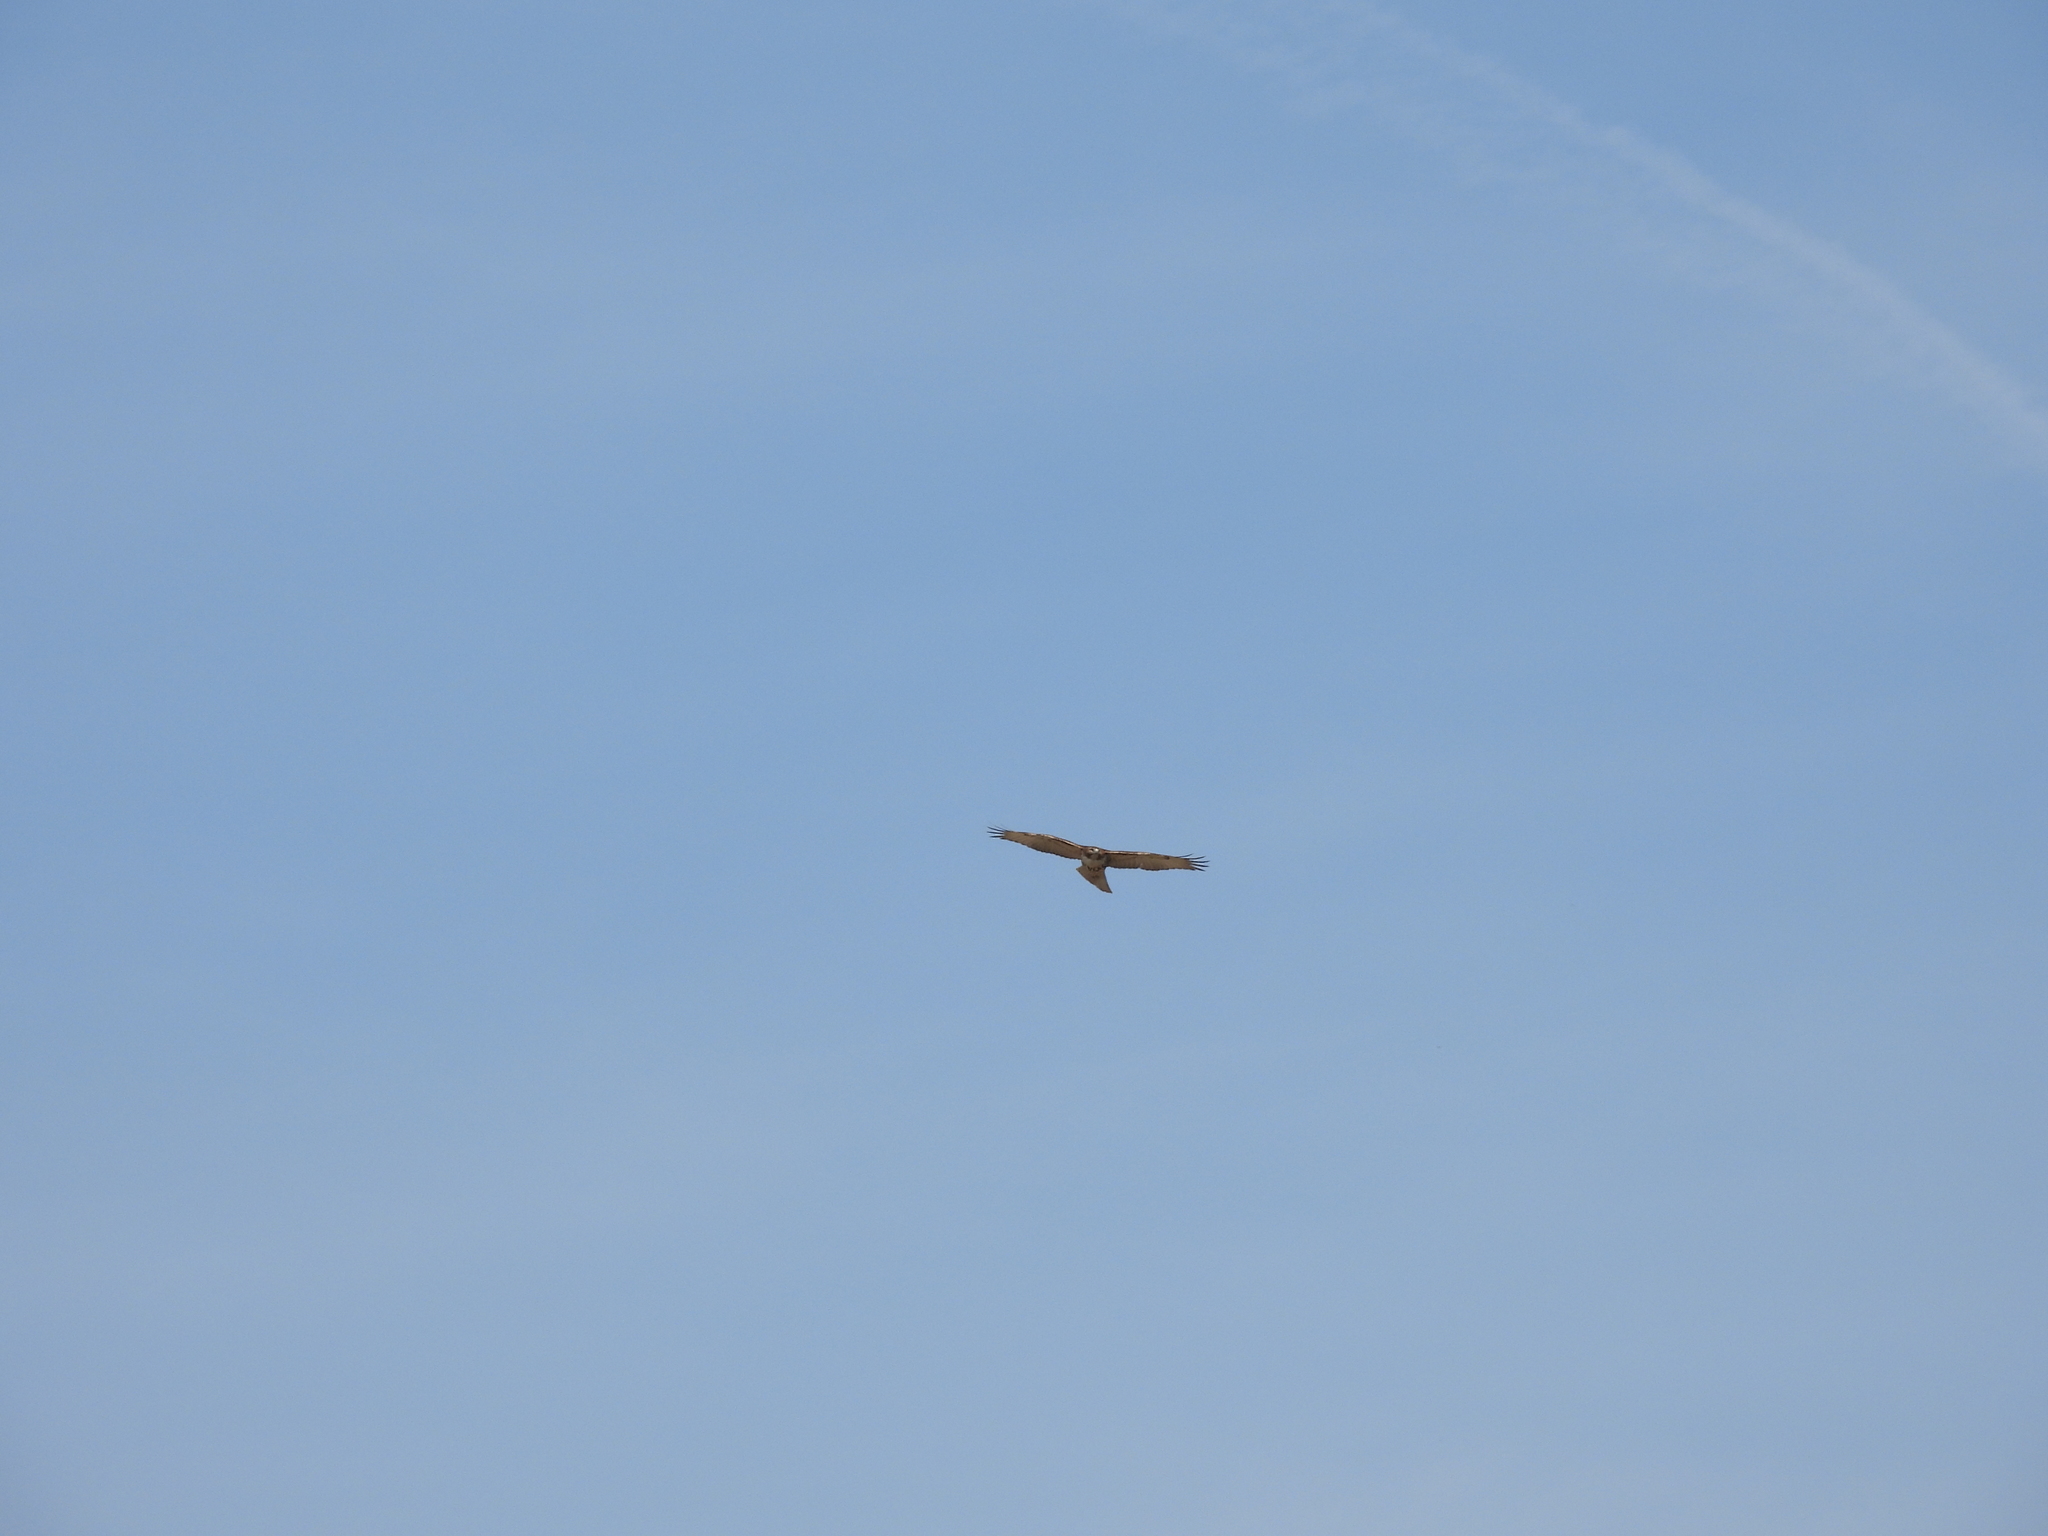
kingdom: Animalia
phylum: Chordata
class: Aves
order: Accipitriformes
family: Accipitridae
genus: Buteo
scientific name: Buteo jamaicensis
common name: Red-tailed hawk
